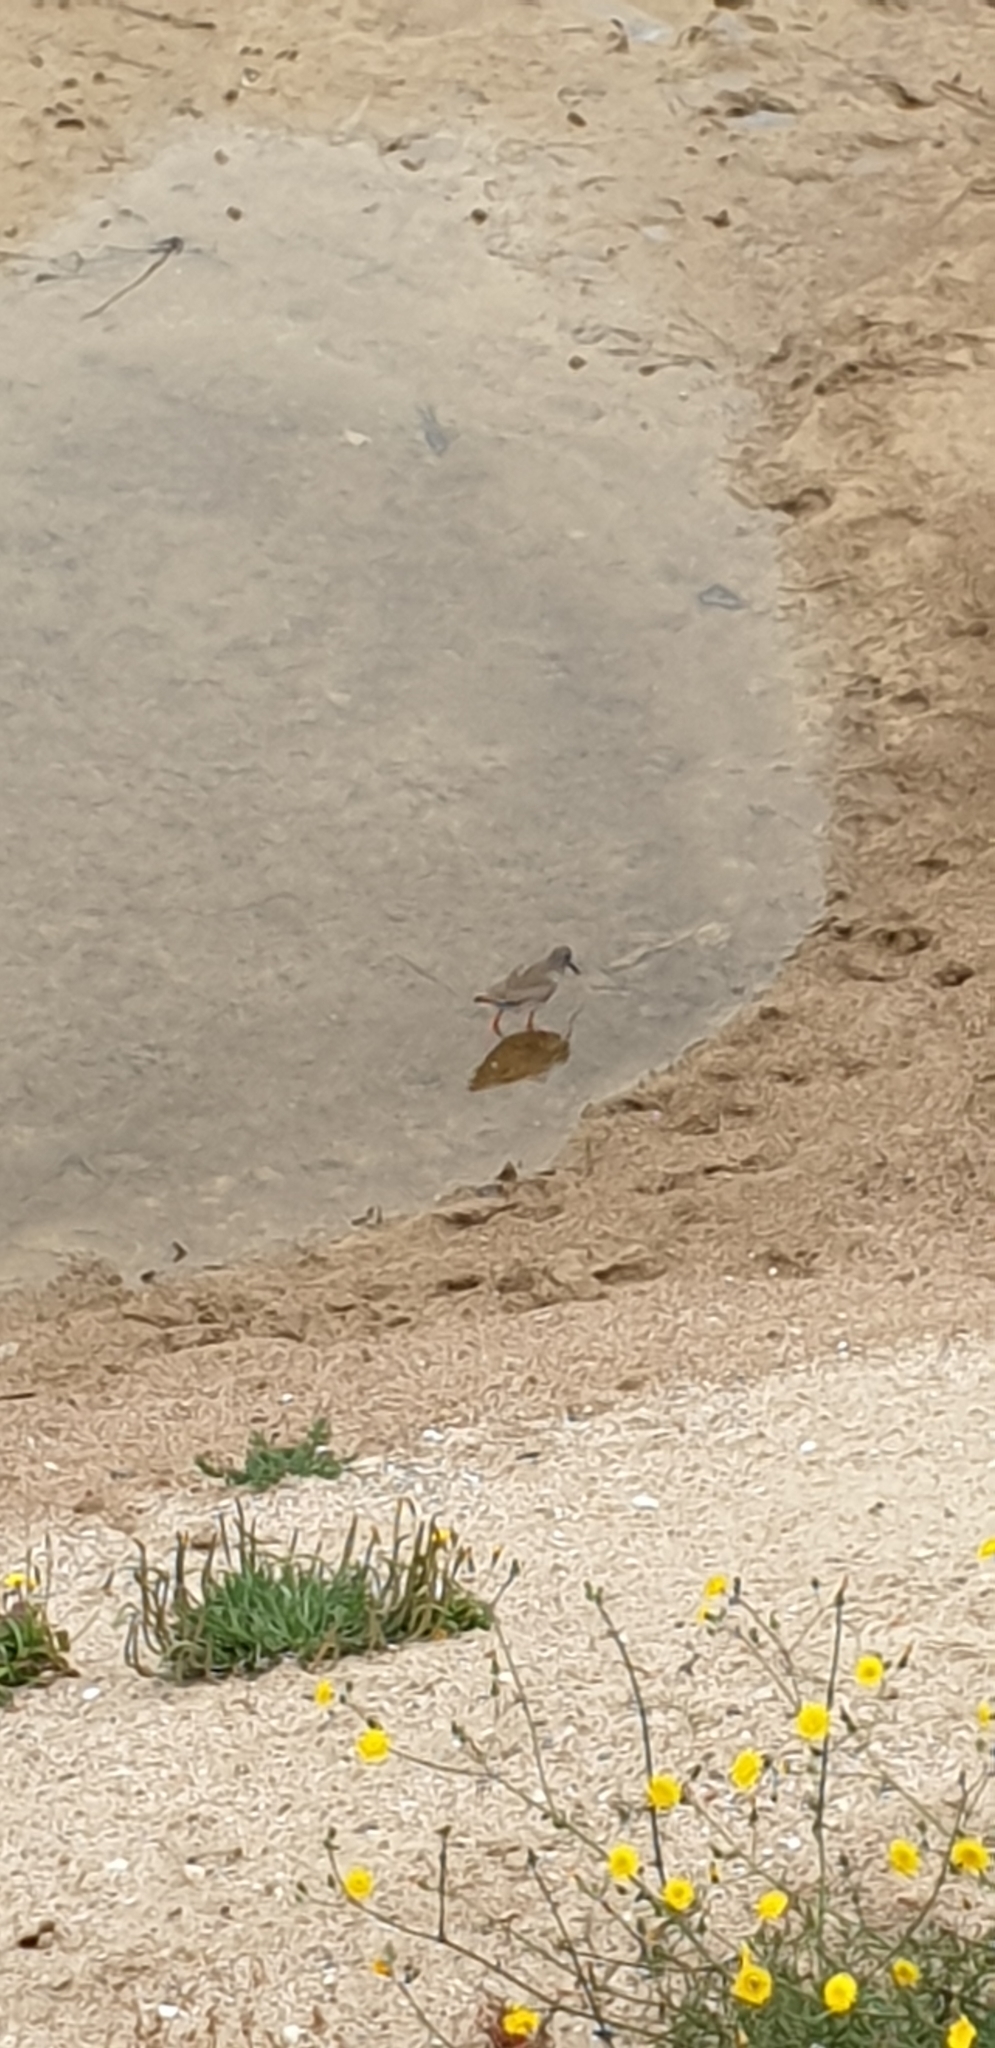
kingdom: Animalia
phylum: Chordata
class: Aves
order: Charadriiformes
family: Scolopacidae
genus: Tringa
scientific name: Tringa totanus
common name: Common redshank
